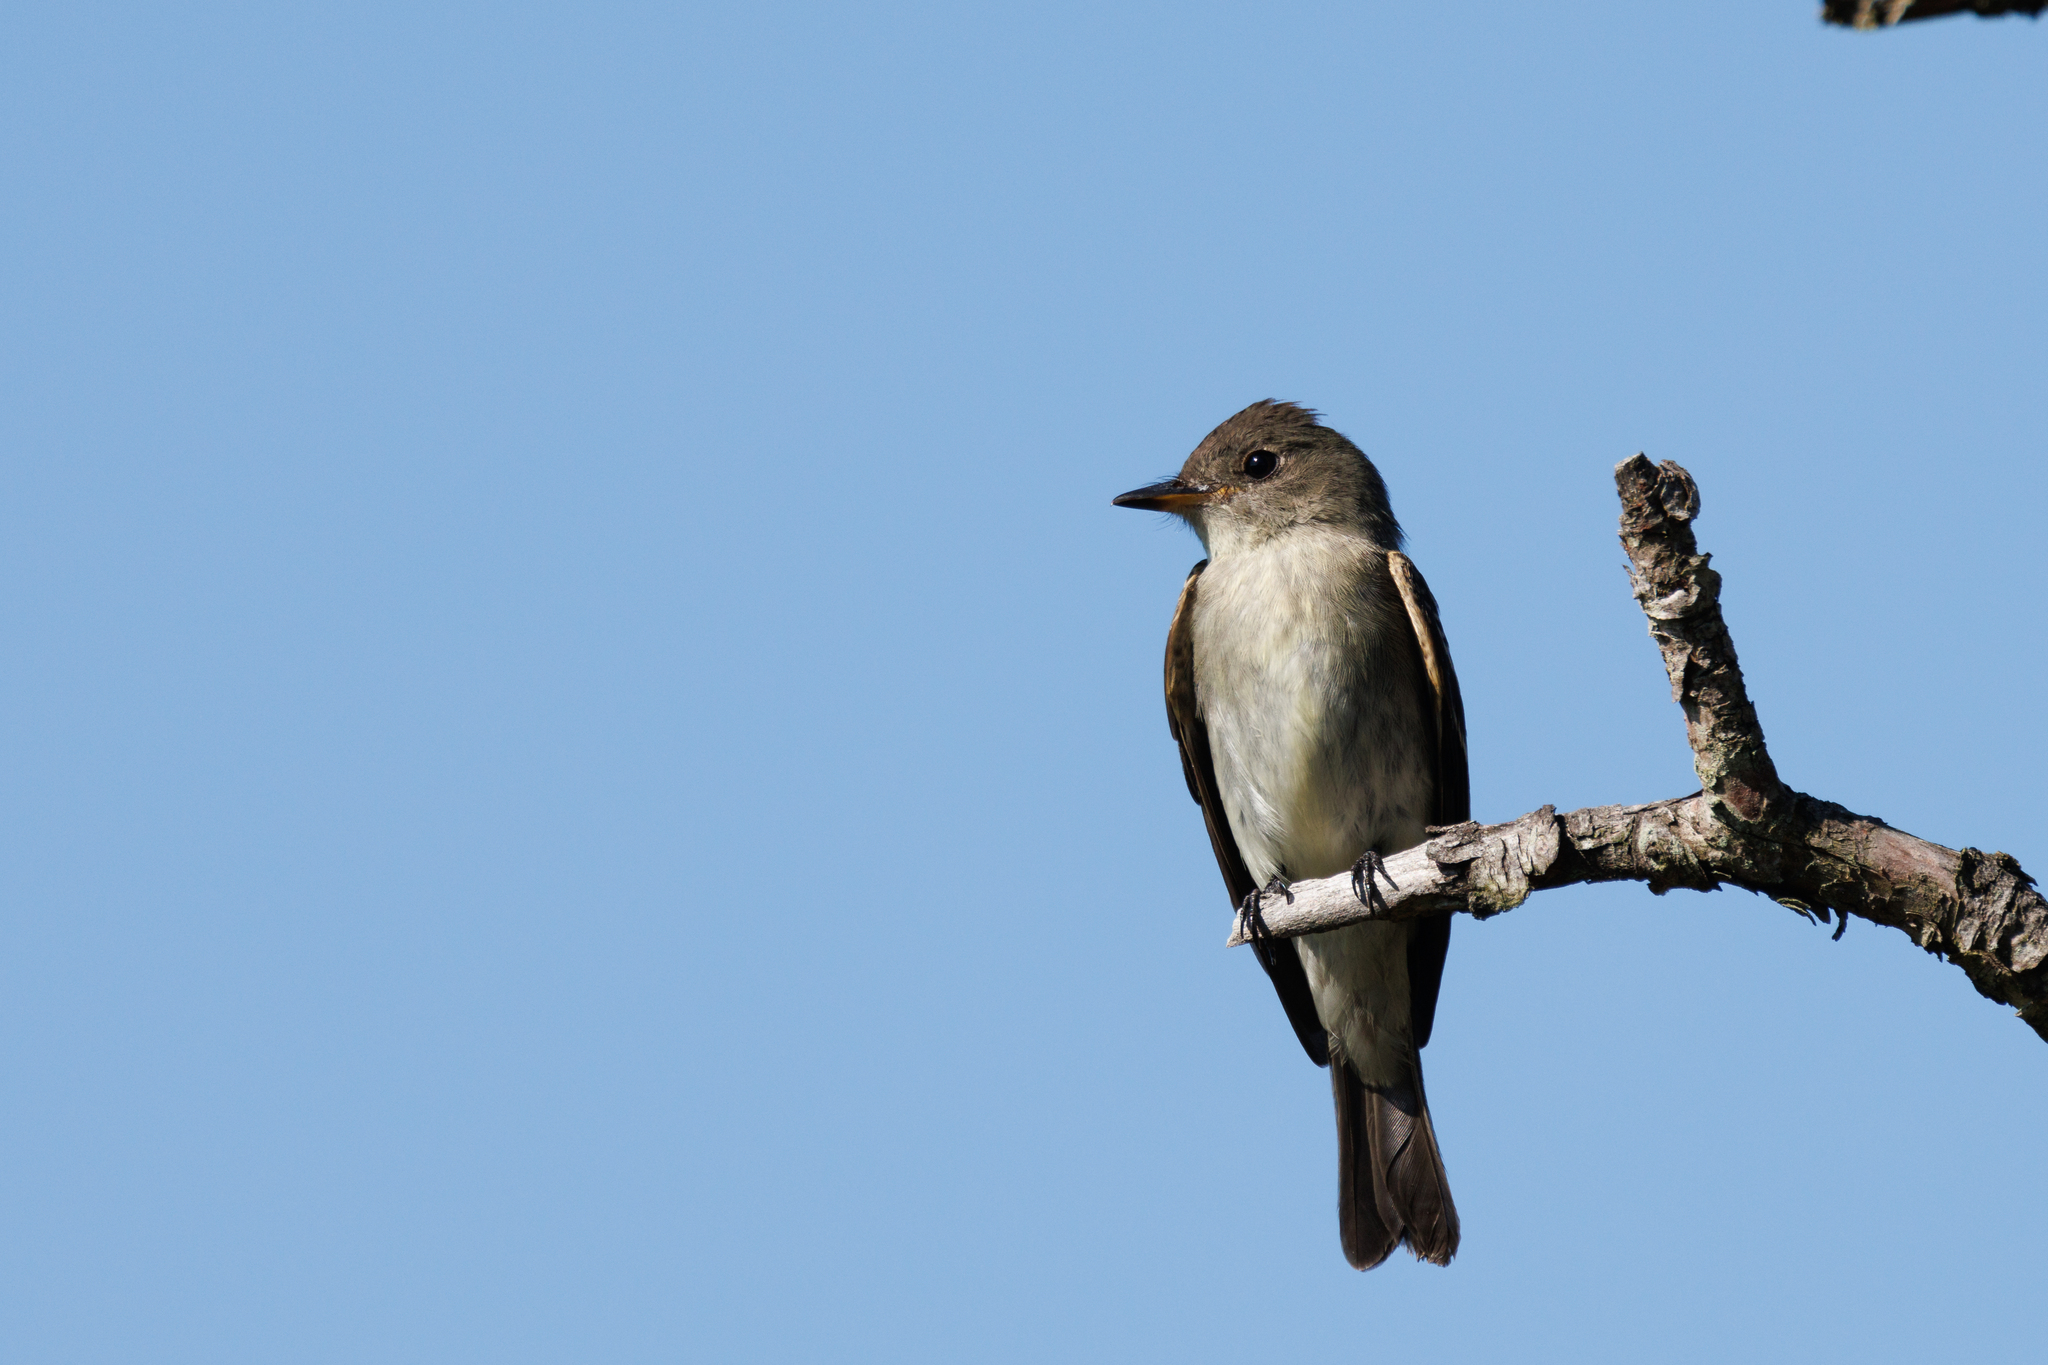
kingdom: Animalia
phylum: Chordata
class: Aves
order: Passeriformes
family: Tyrannidae
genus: Contopus
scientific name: Contopus virens
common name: Eastern wood-pewee
